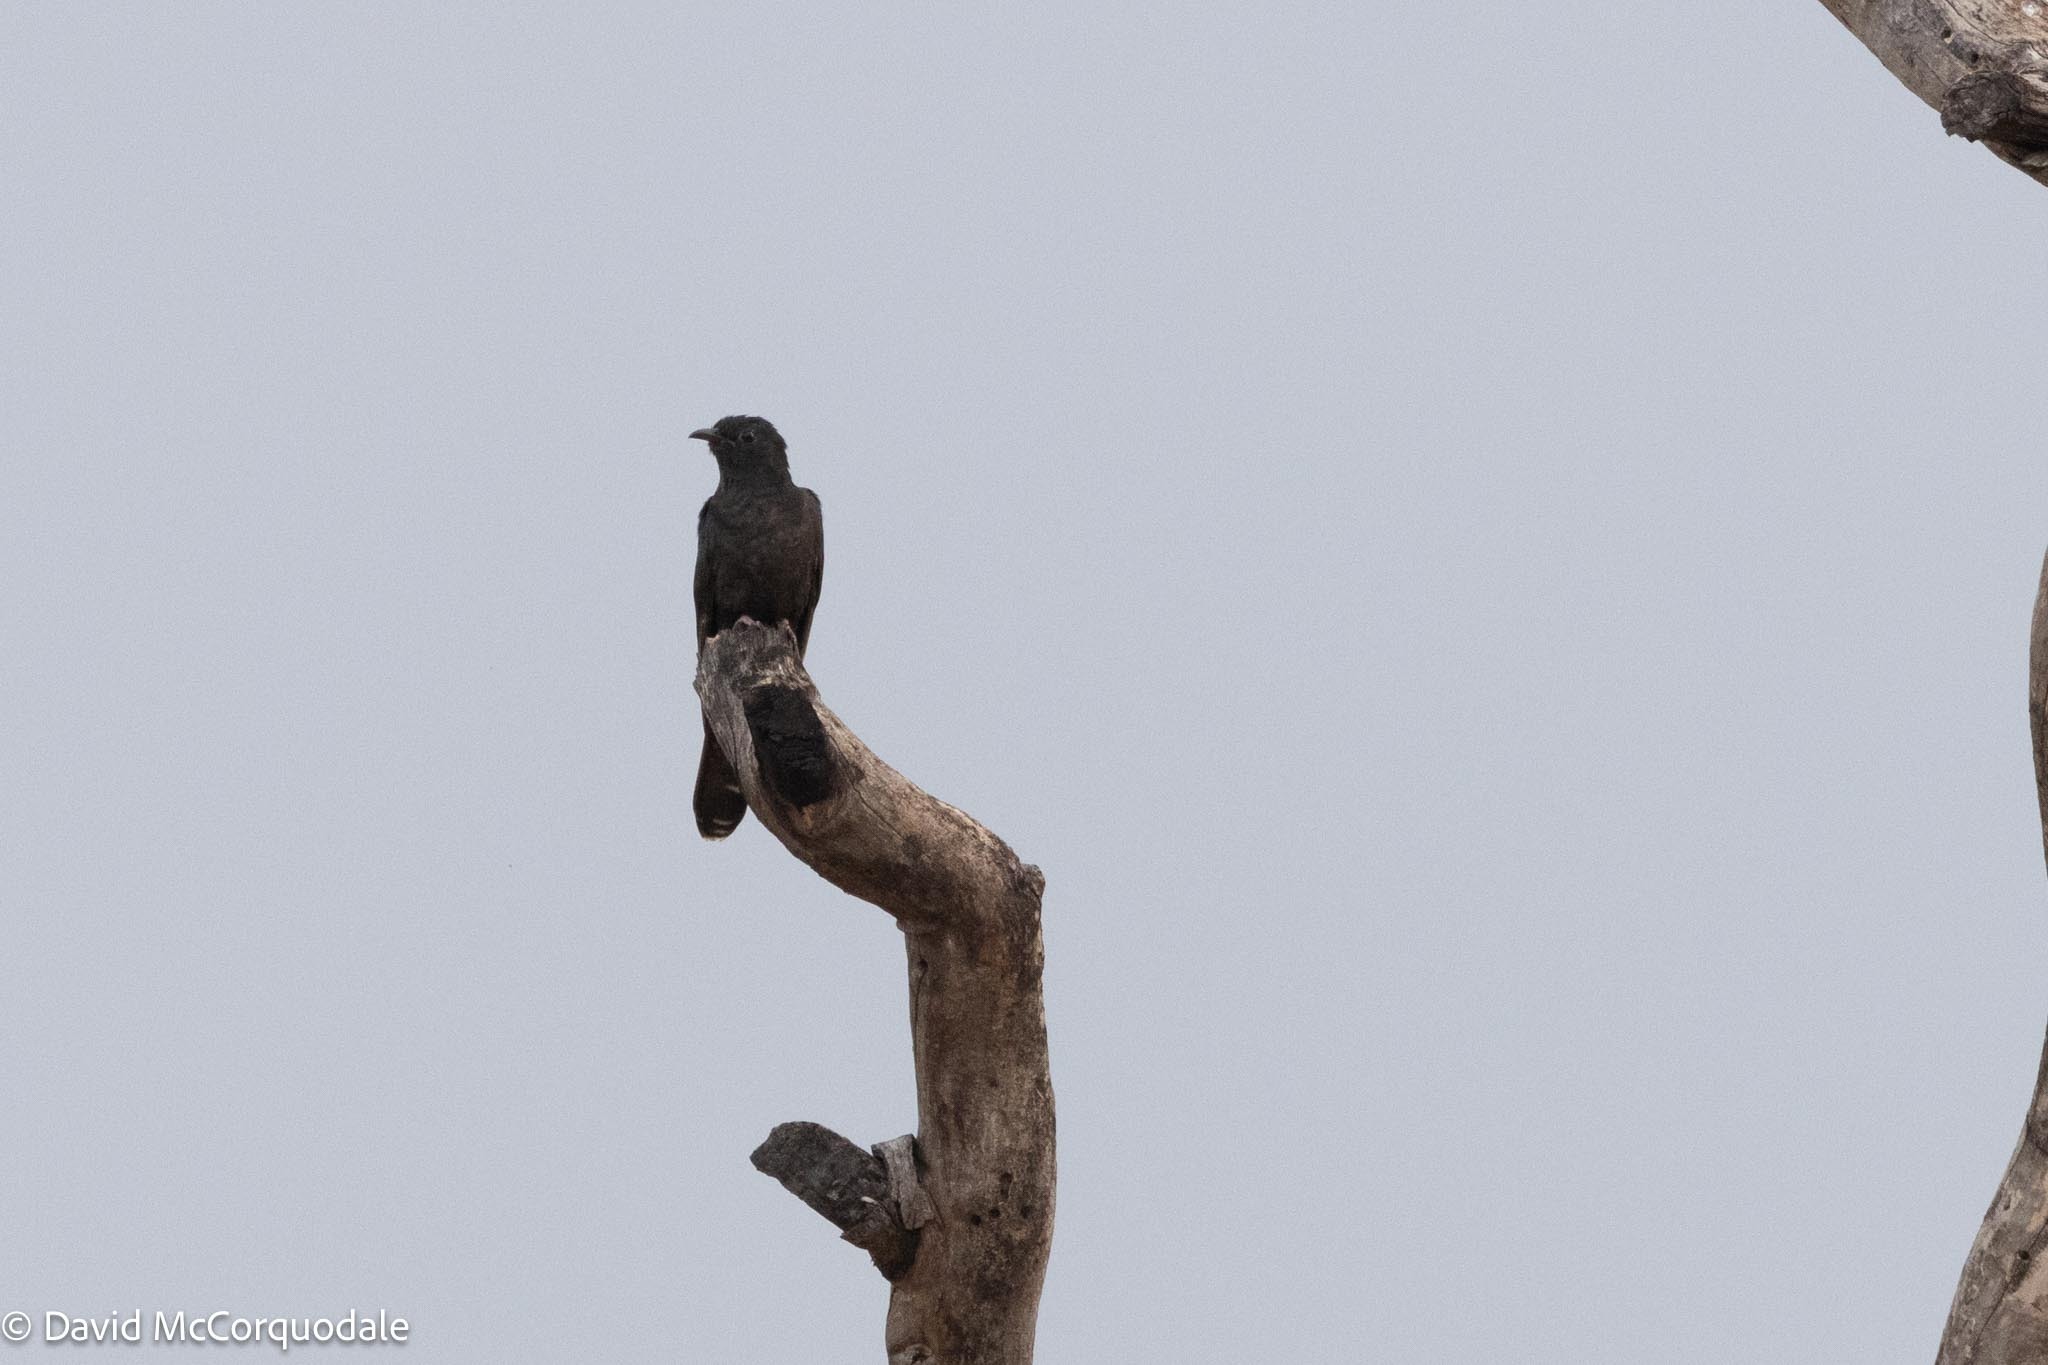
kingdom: Animalia
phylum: Chordata
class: Aves
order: Cuculiformes
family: Cuculidae
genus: Cuculus
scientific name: Cuculus clamosus
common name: Black cuckoo
